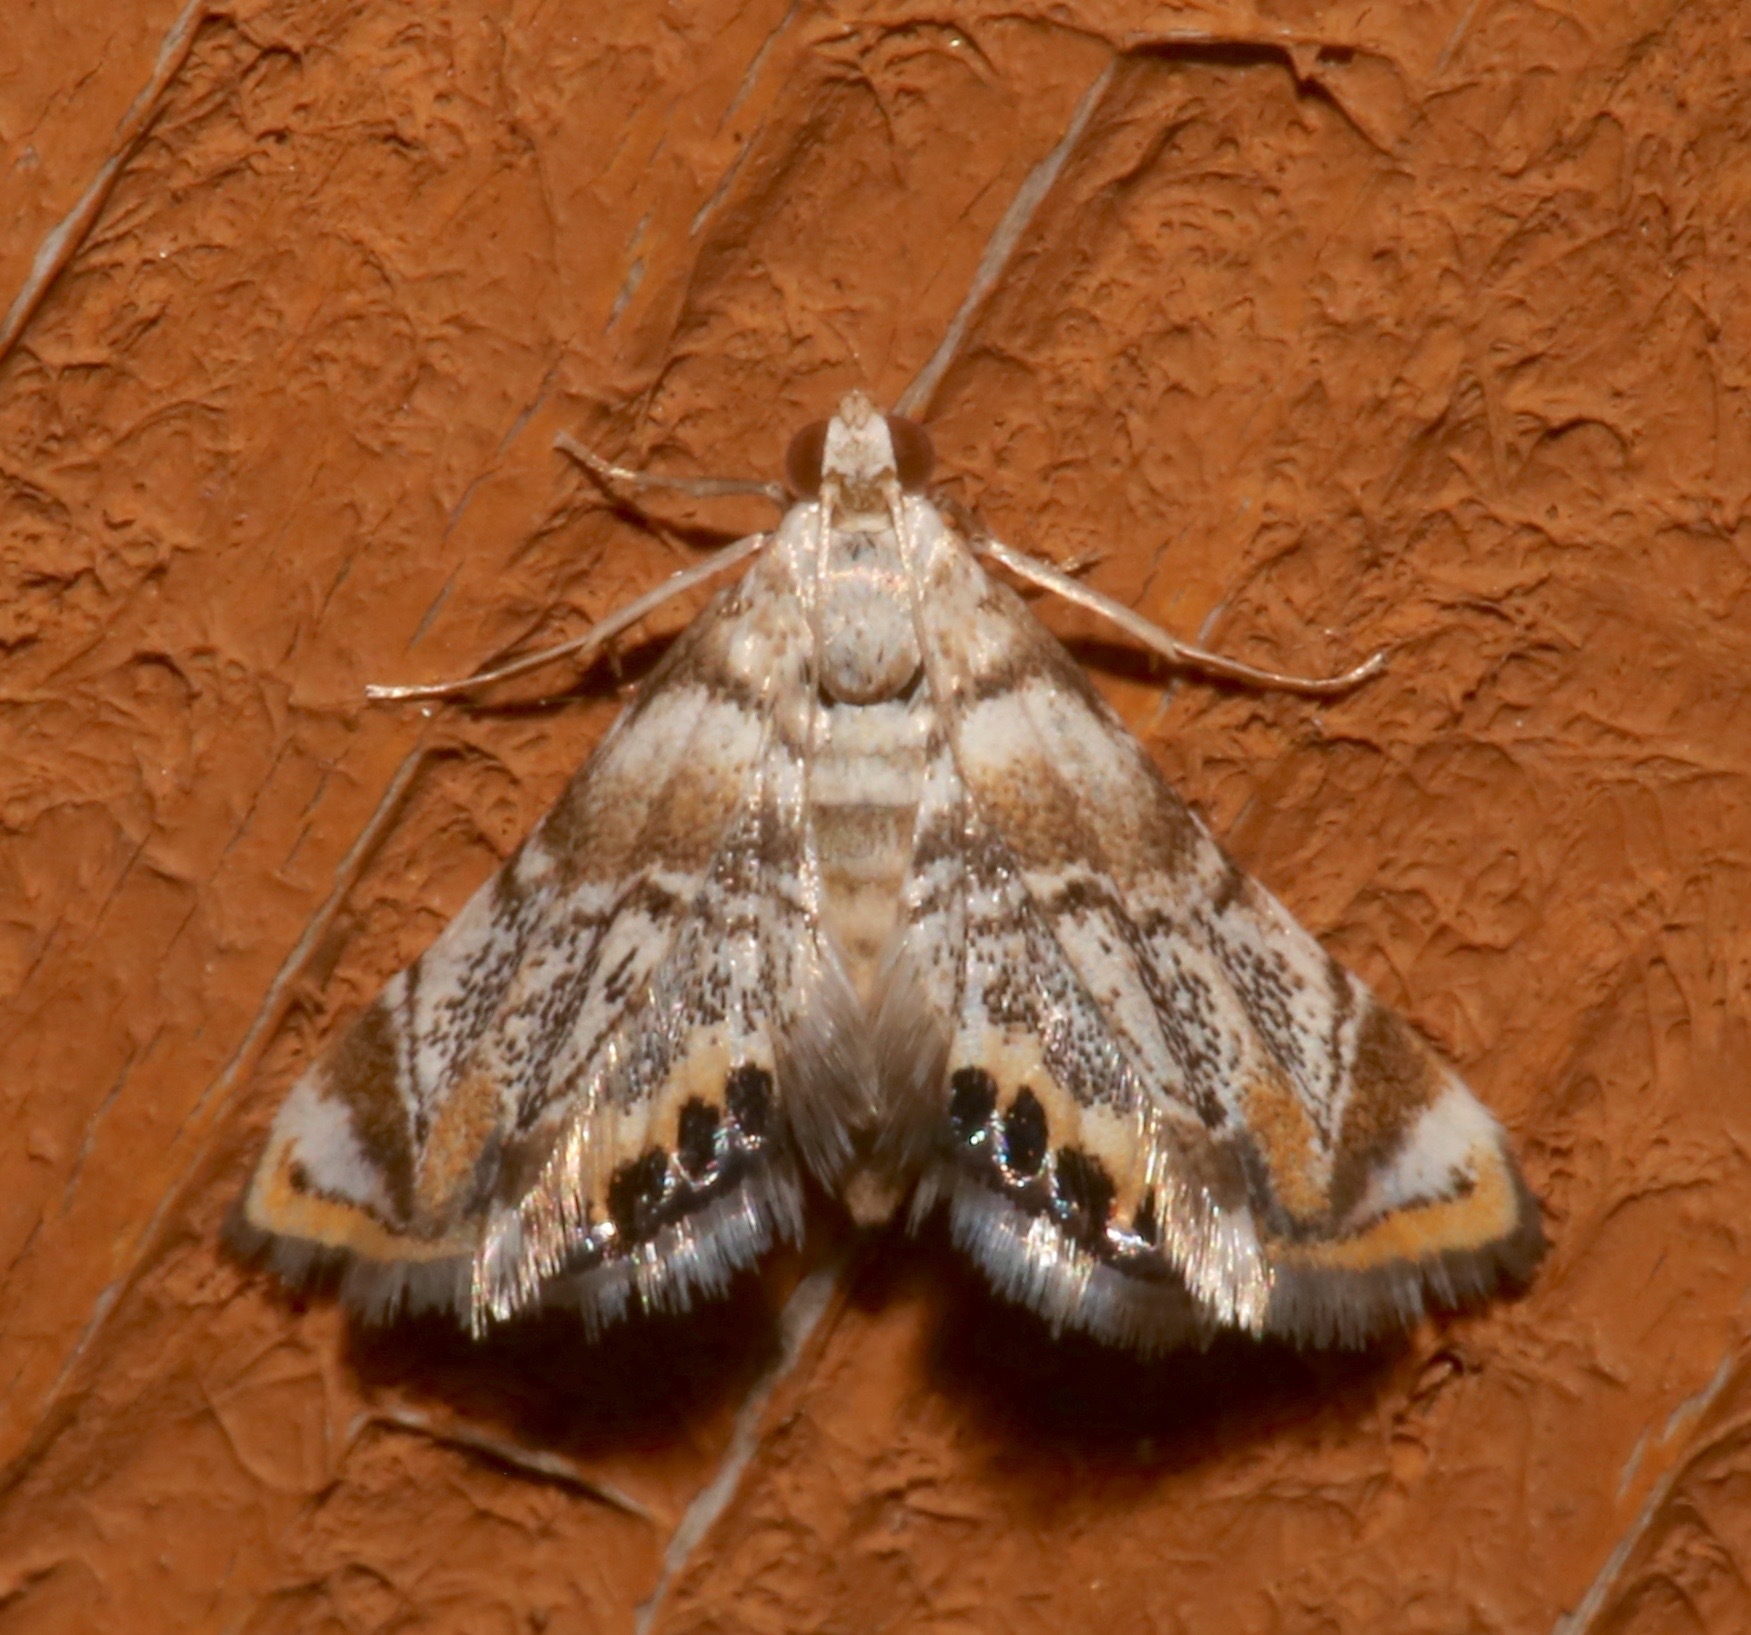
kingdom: Animalia
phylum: Arthropoda
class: Insecta
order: Lepidoptera
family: Crambidae
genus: Eoparargyractis
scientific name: Eoparargyractis irroratalis
